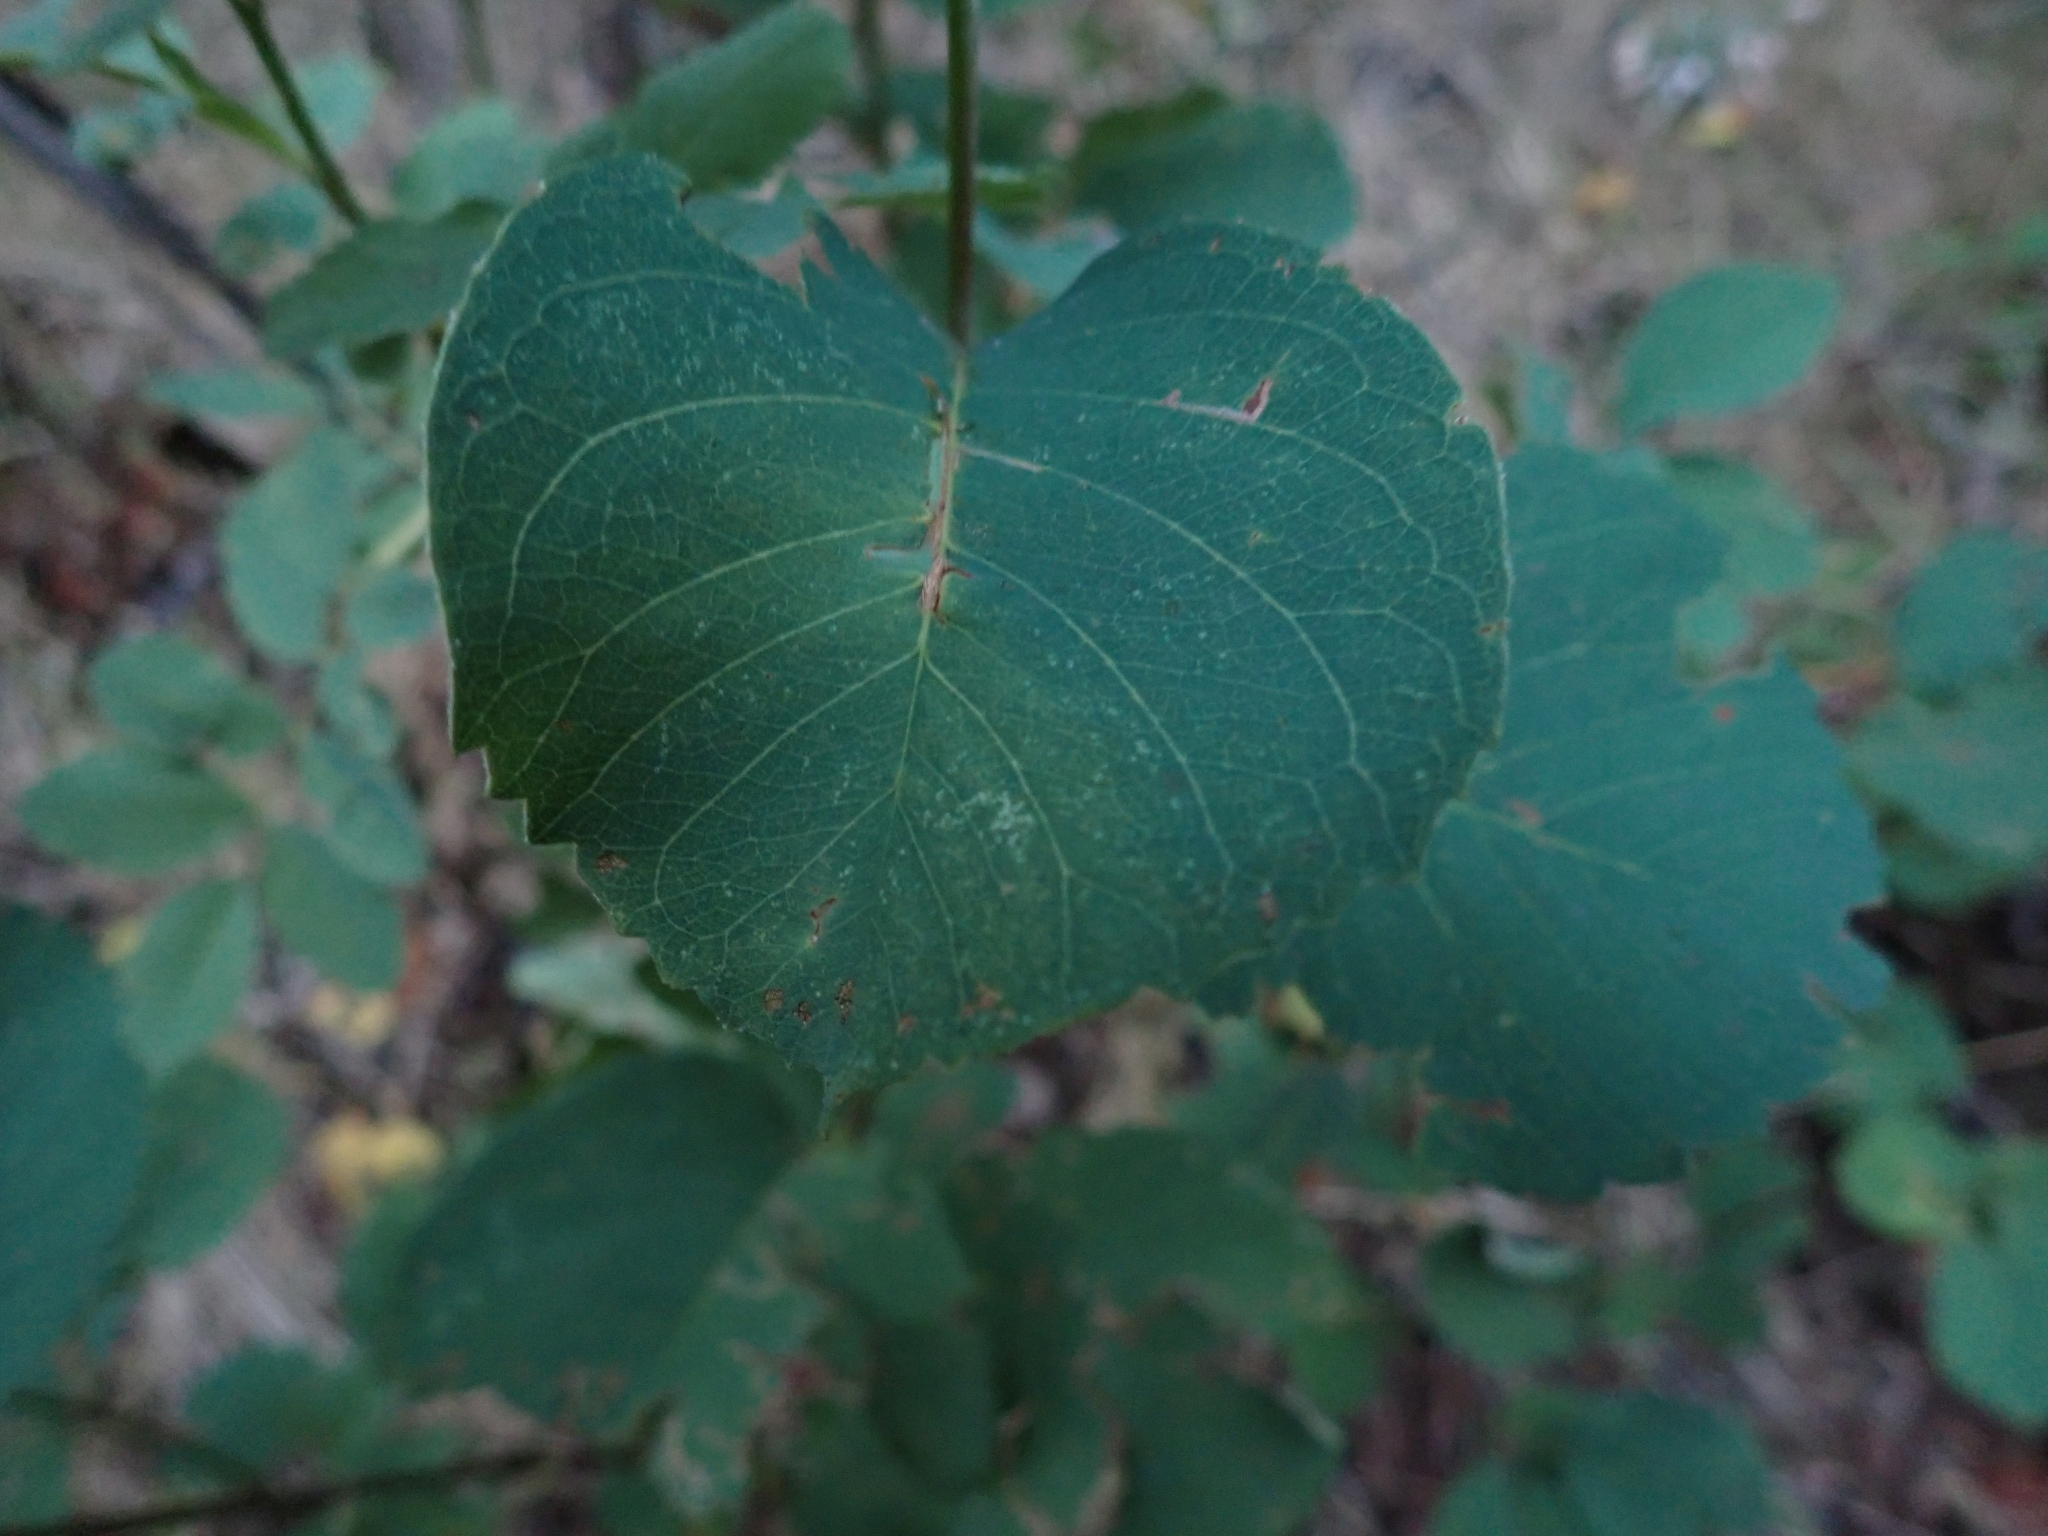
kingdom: Plantae
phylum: Tracheophyta
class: Magnoliopsida
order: Rosales
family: Rosaceae
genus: Amelanchier
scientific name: Amelanchier alnifolia
